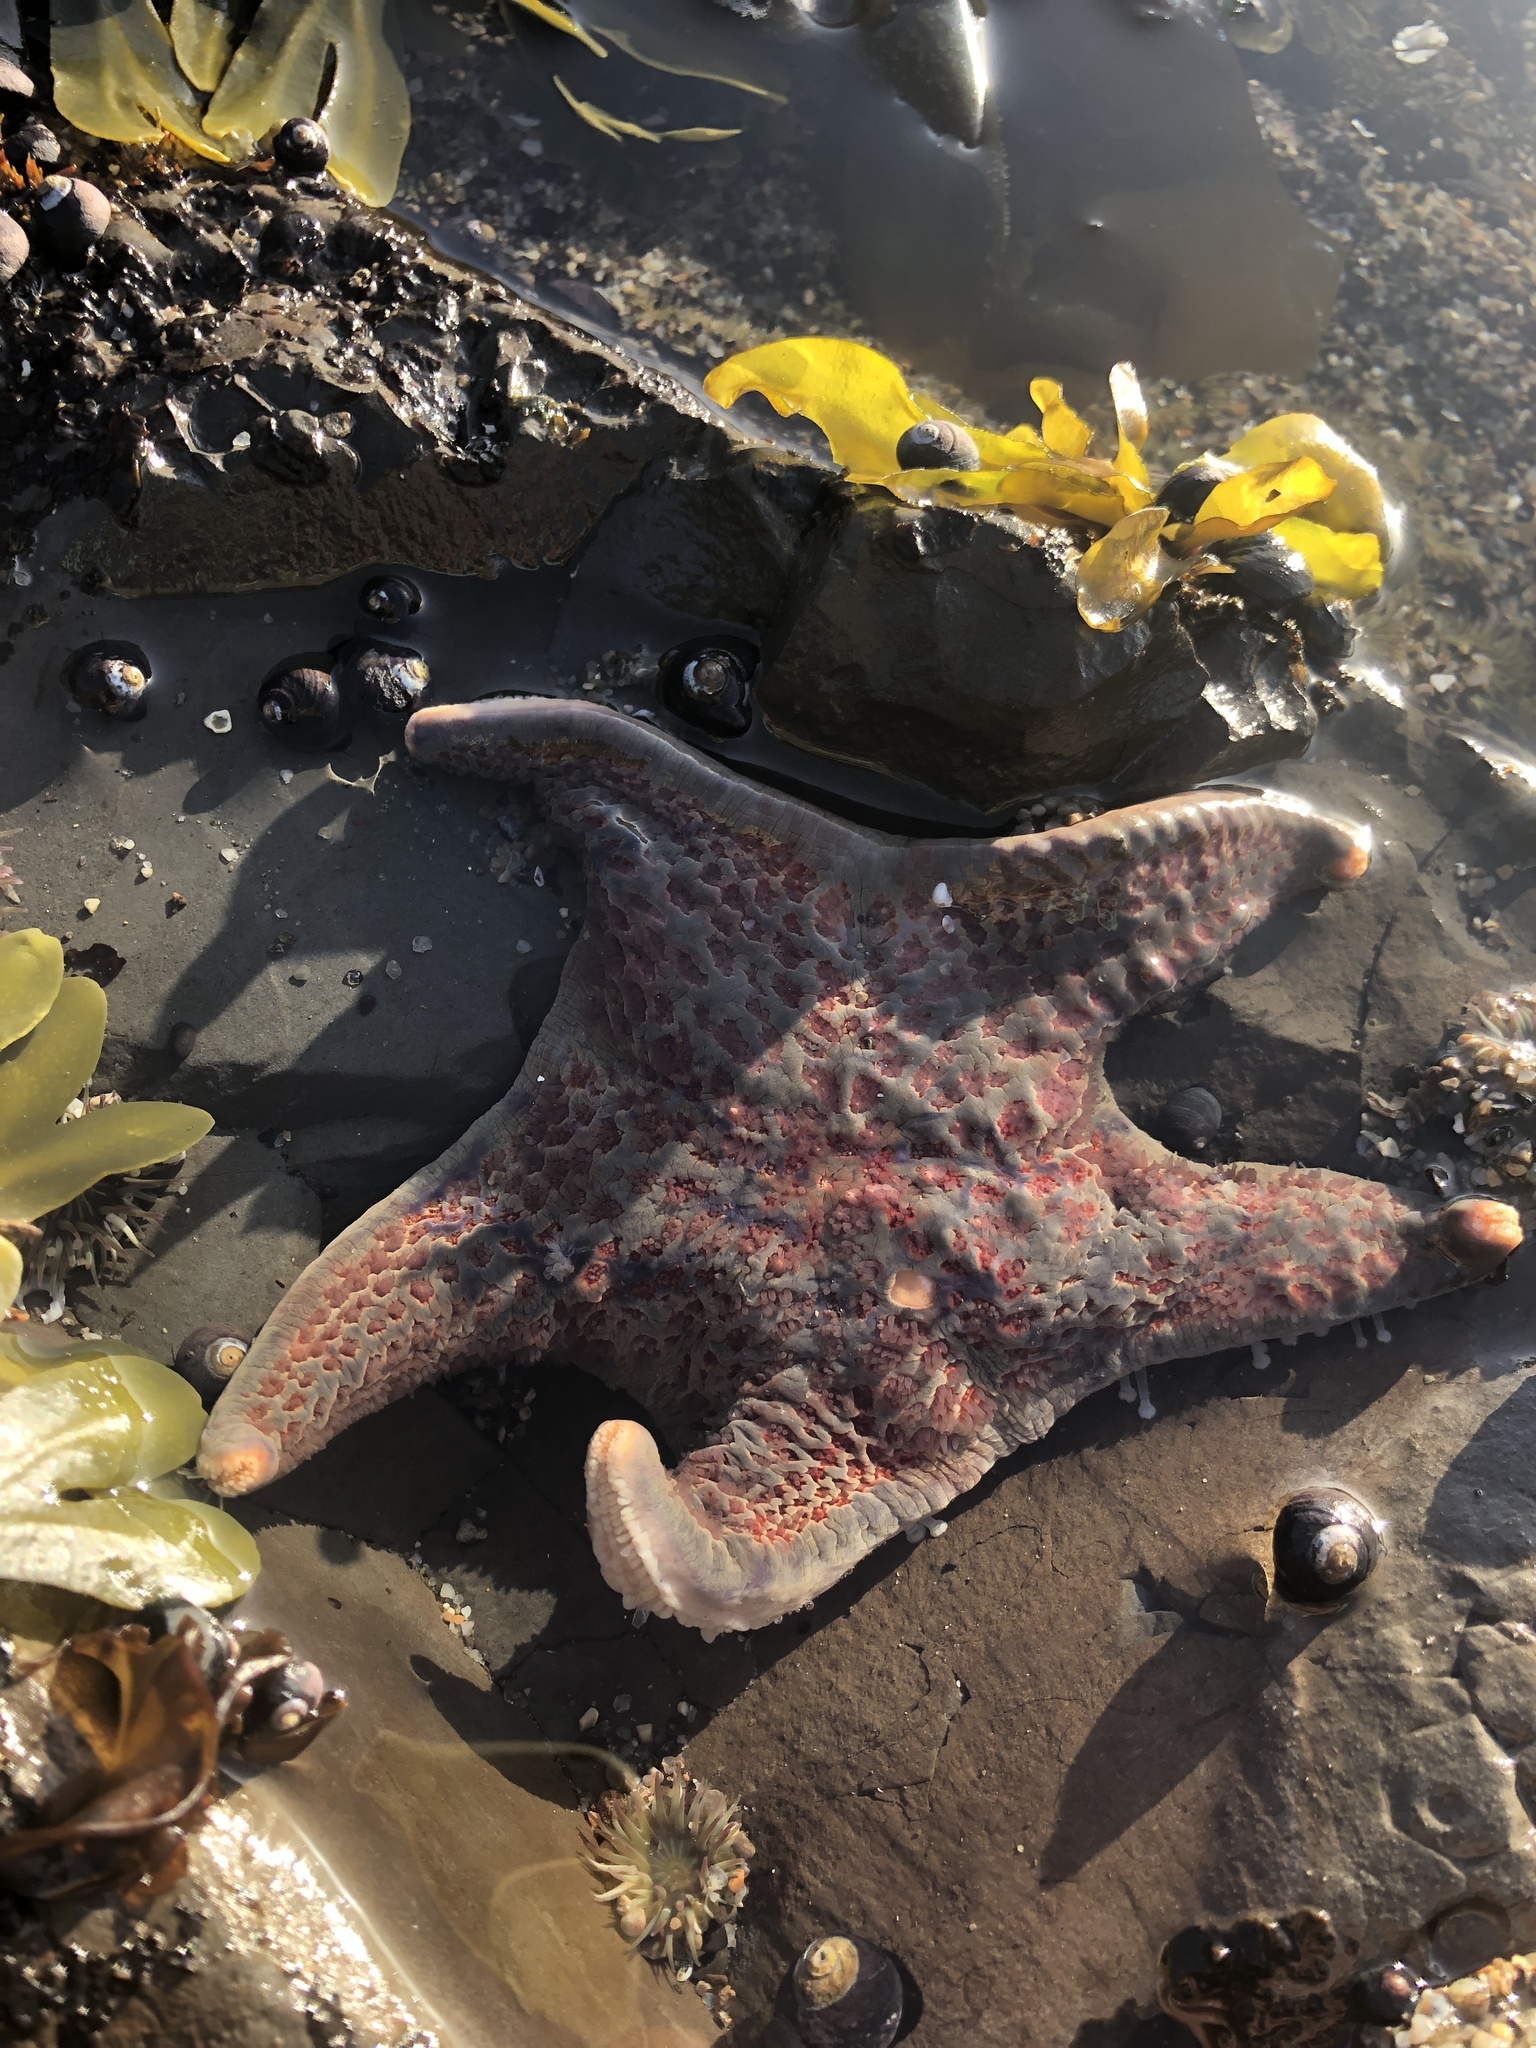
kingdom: Animalia
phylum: Echinodermata
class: Asteroidea
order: Valvatida
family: Asteropseidae
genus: Dermasterias
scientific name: Dermasterias imbricata
